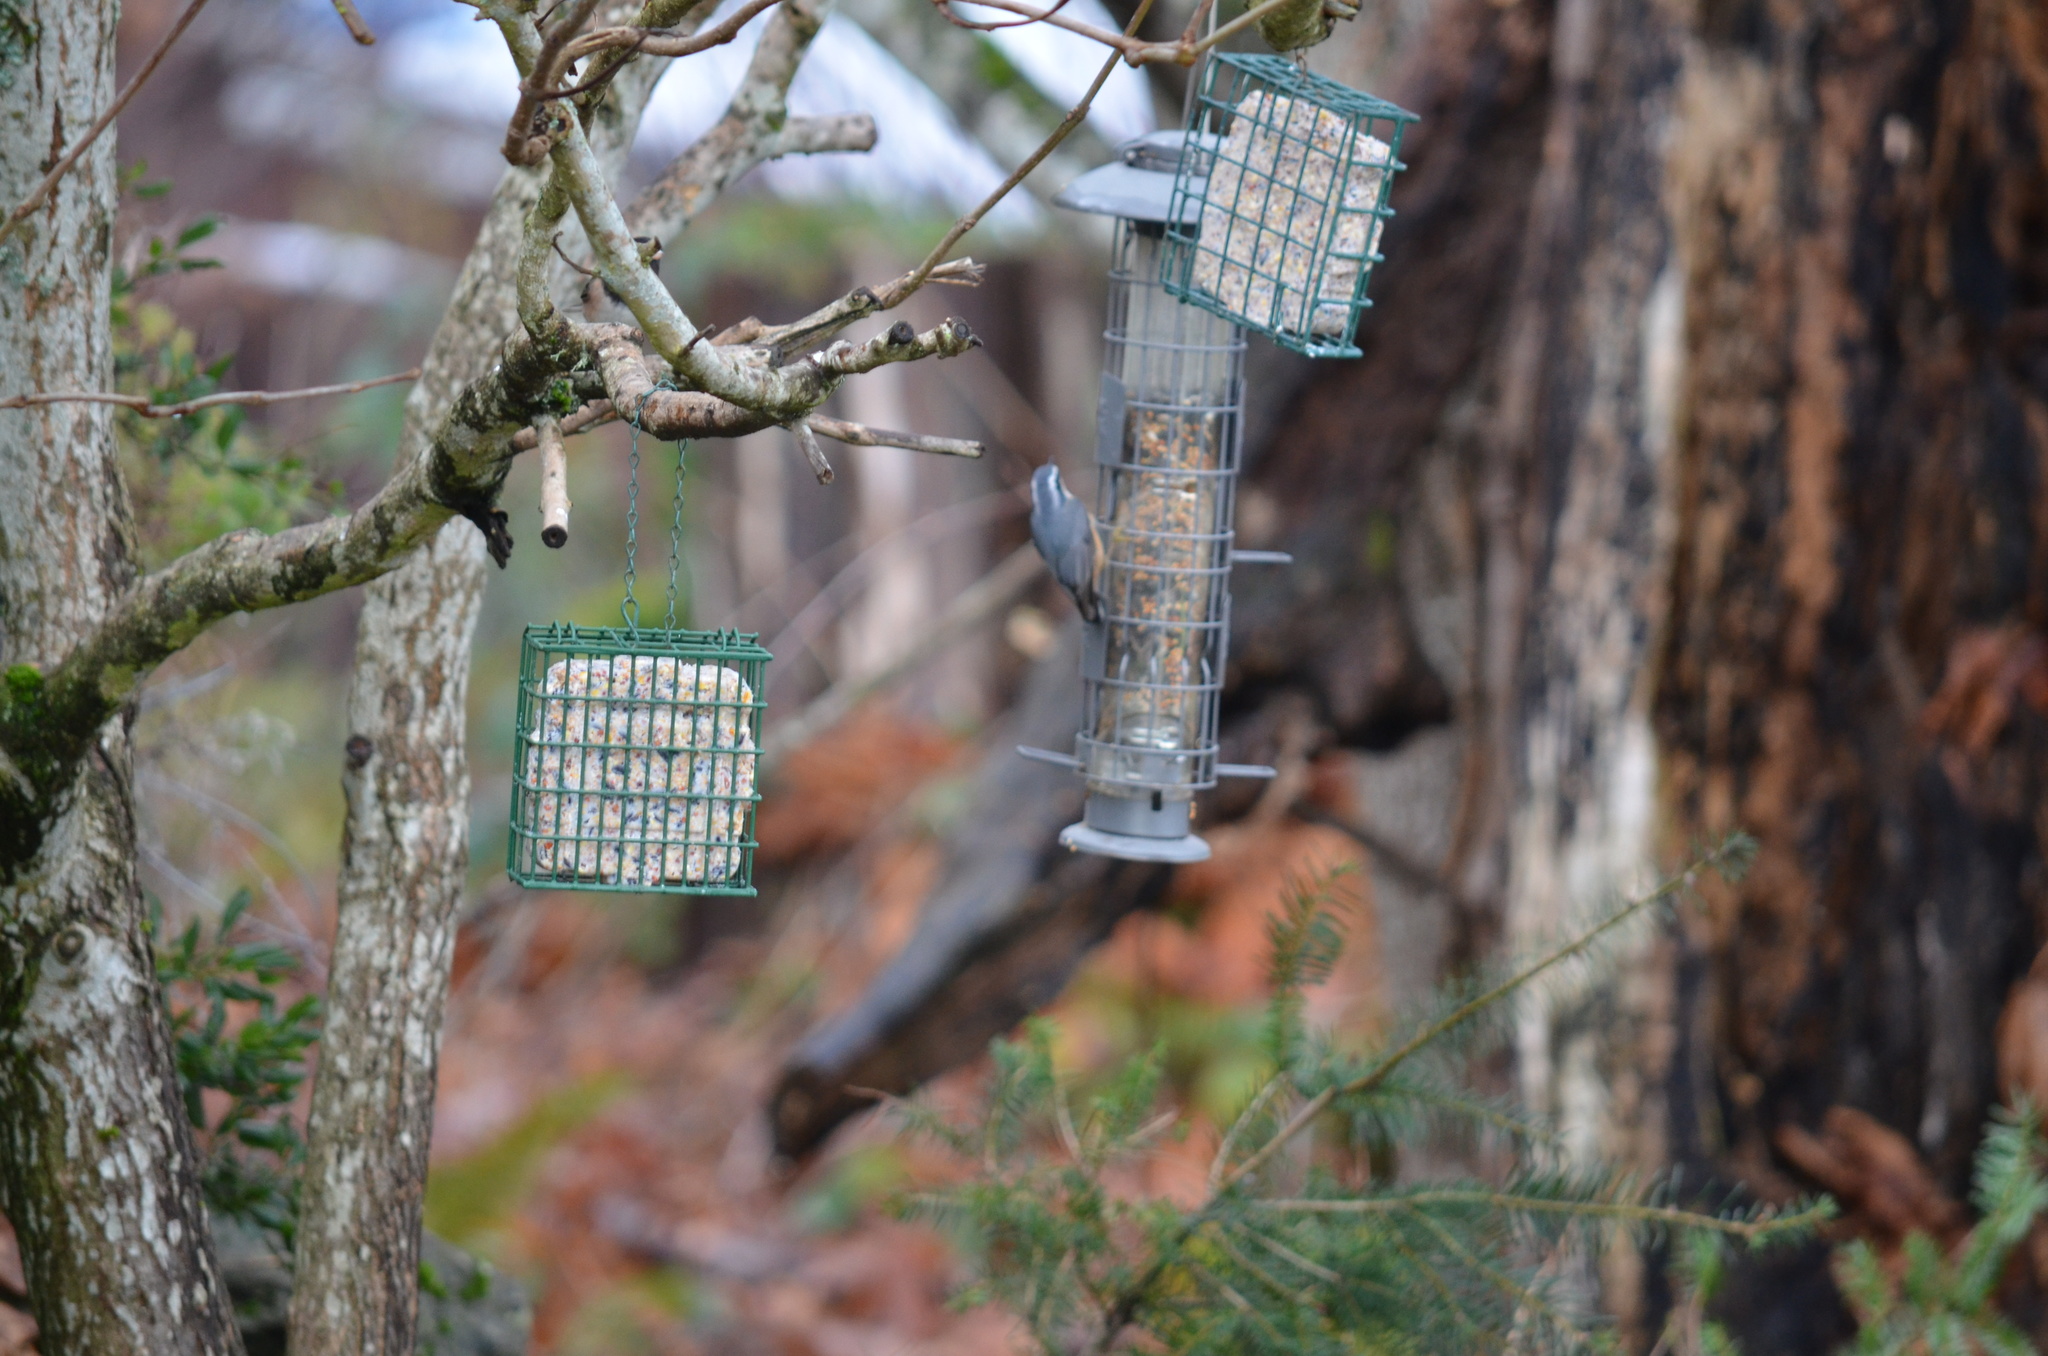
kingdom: Animalia
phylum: Chordata
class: Aves
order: Passeriformes
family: Sittidae
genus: Sitta
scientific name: Sitta canadensis
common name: Red-breasted nuthatch
